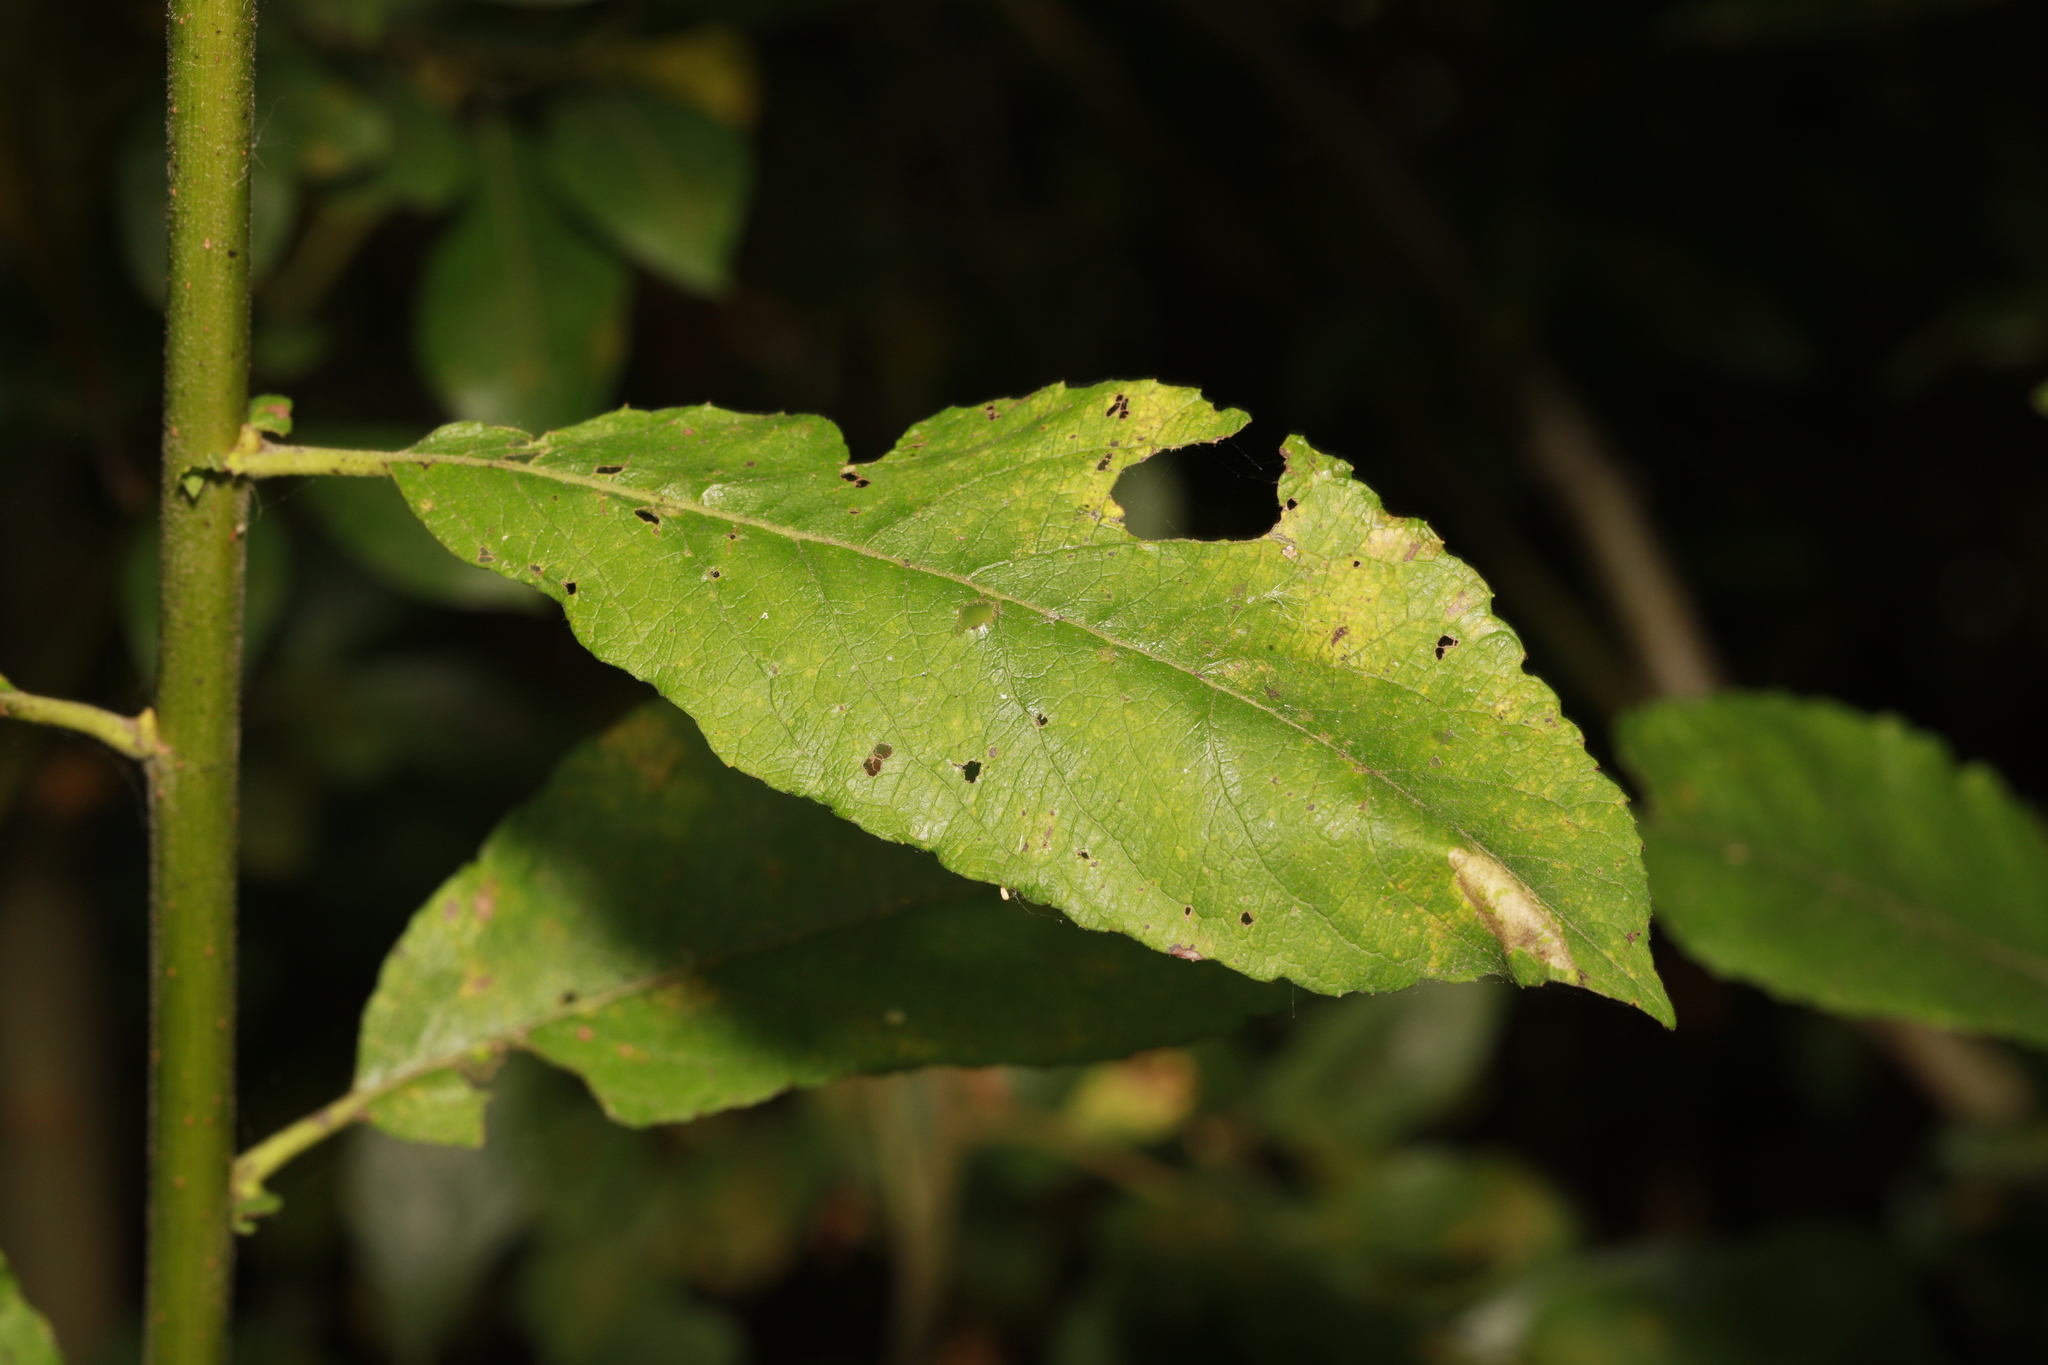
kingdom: Plantae
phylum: Tracheophyta
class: Magnoliopsida
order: Malpighiales
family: Salicaceae
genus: Salix
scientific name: Salix cinerea
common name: Common sallow
